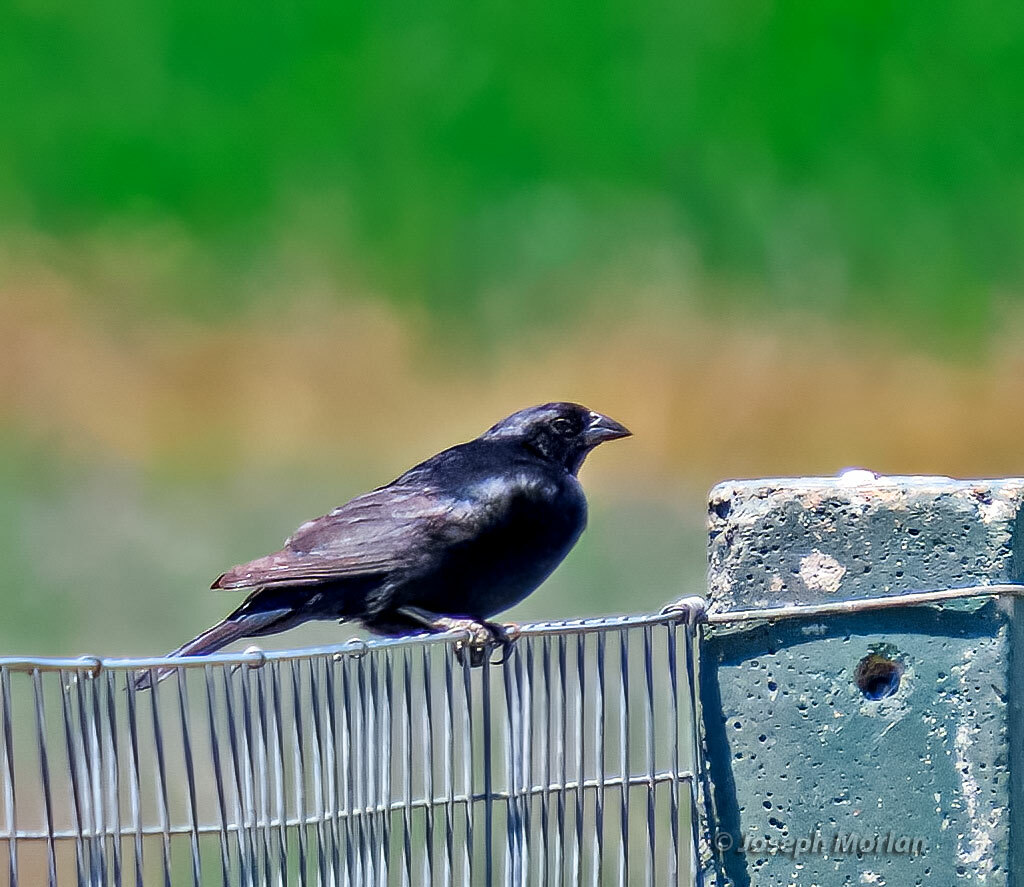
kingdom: Animalia
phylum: Chordata
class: Aves
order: Passeriformes
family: Icteridae
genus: Molothrus
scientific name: Molothrus rufoaxillaris
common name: Screaming cowbird
